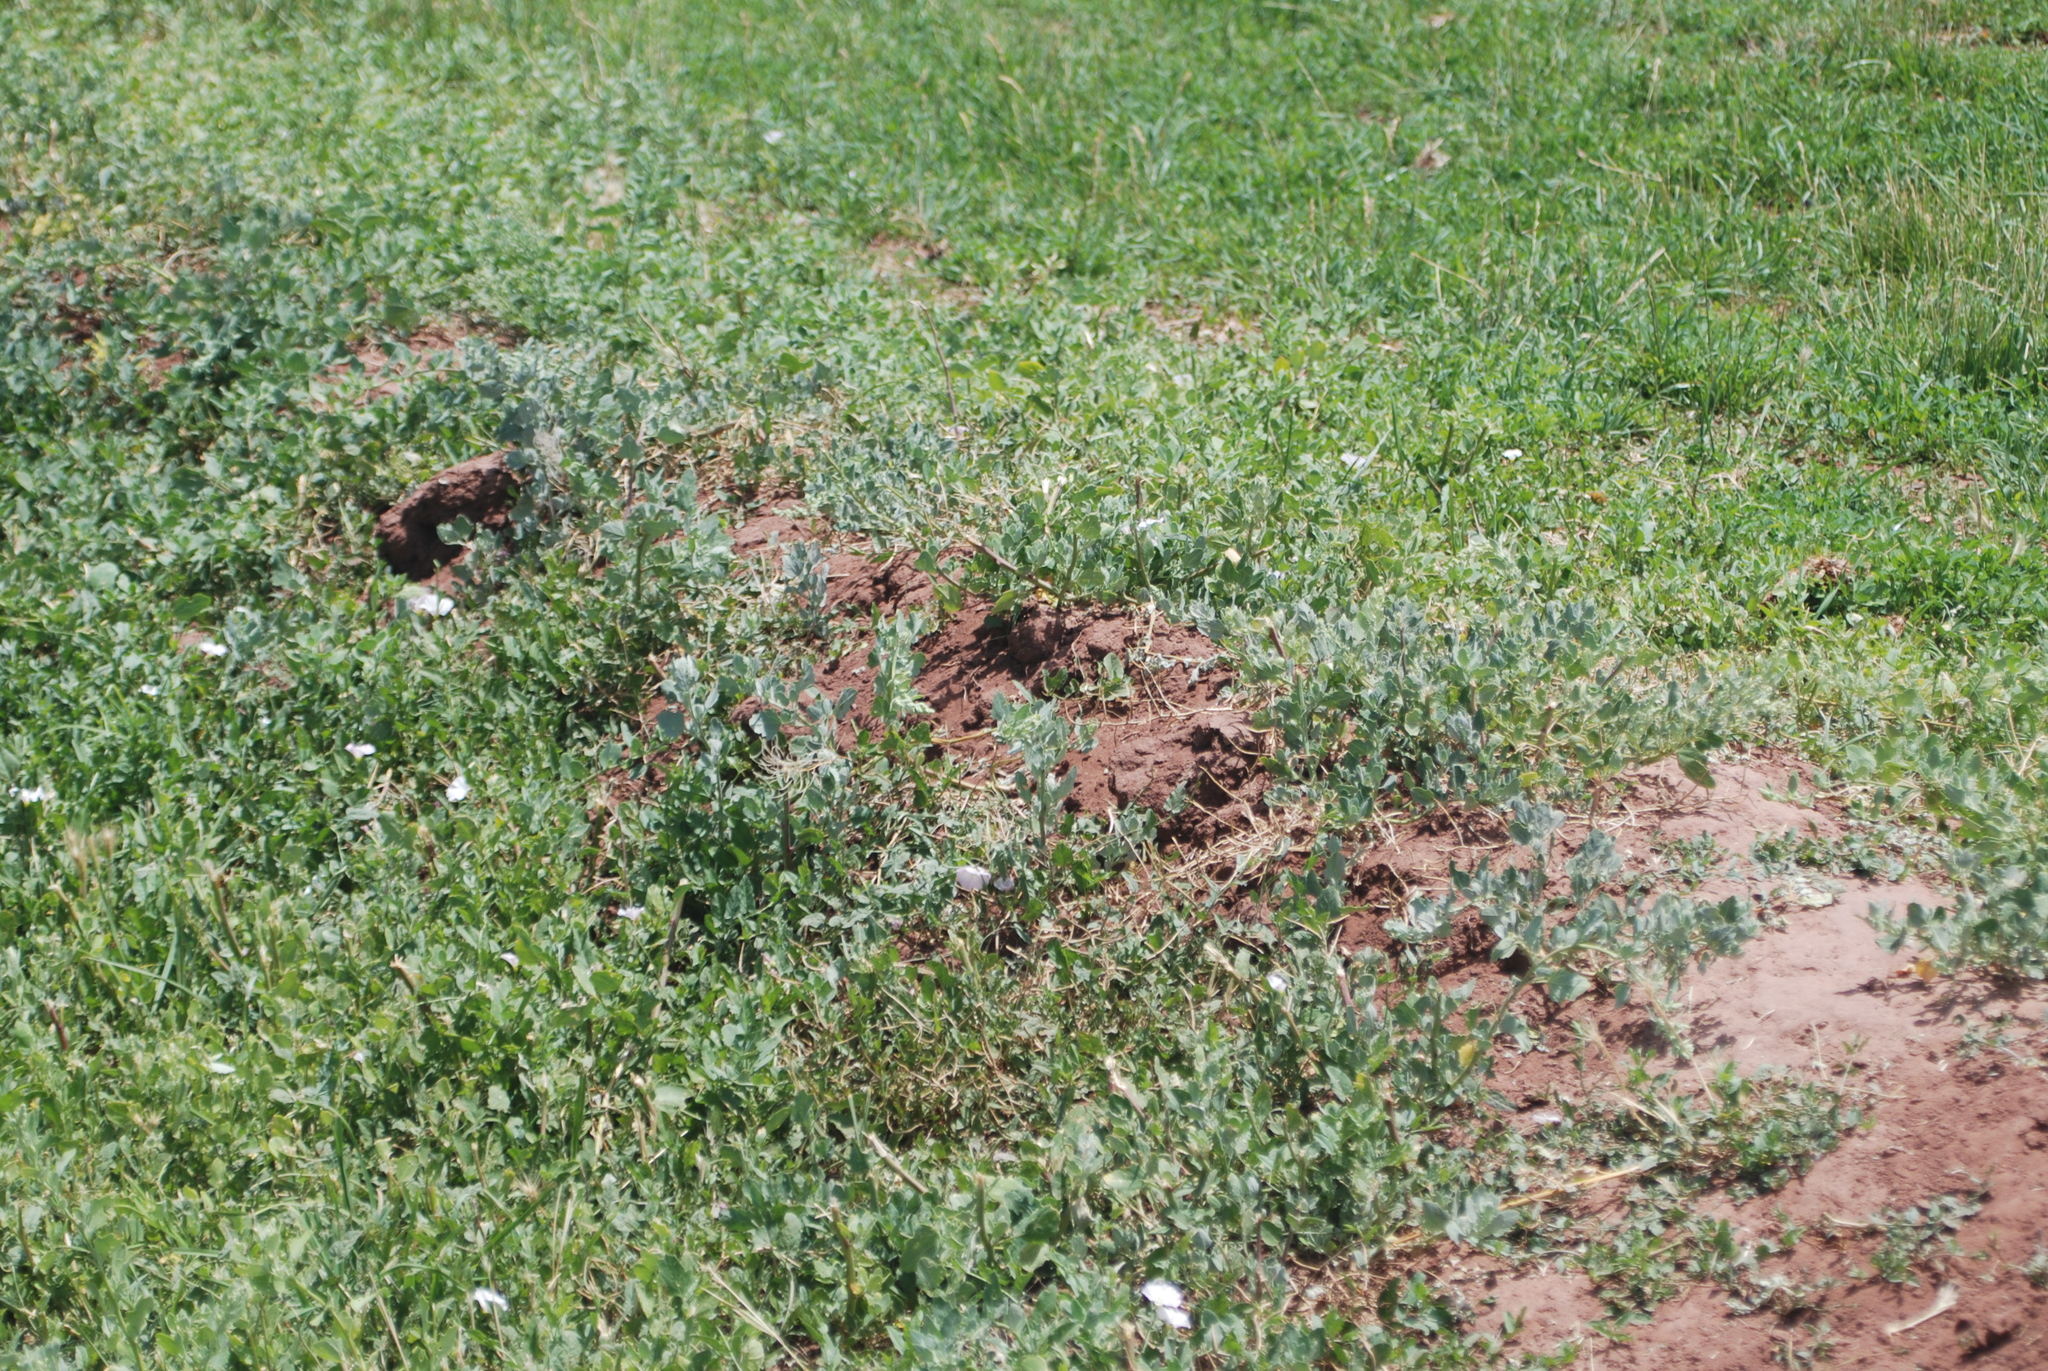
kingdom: Plantae
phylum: Tracheophyta
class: Magnoliopsida
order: Solanales
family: Convolvulaceae
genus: Convolvulus
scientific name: Convolvulus arvensis
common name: Field bindweed
